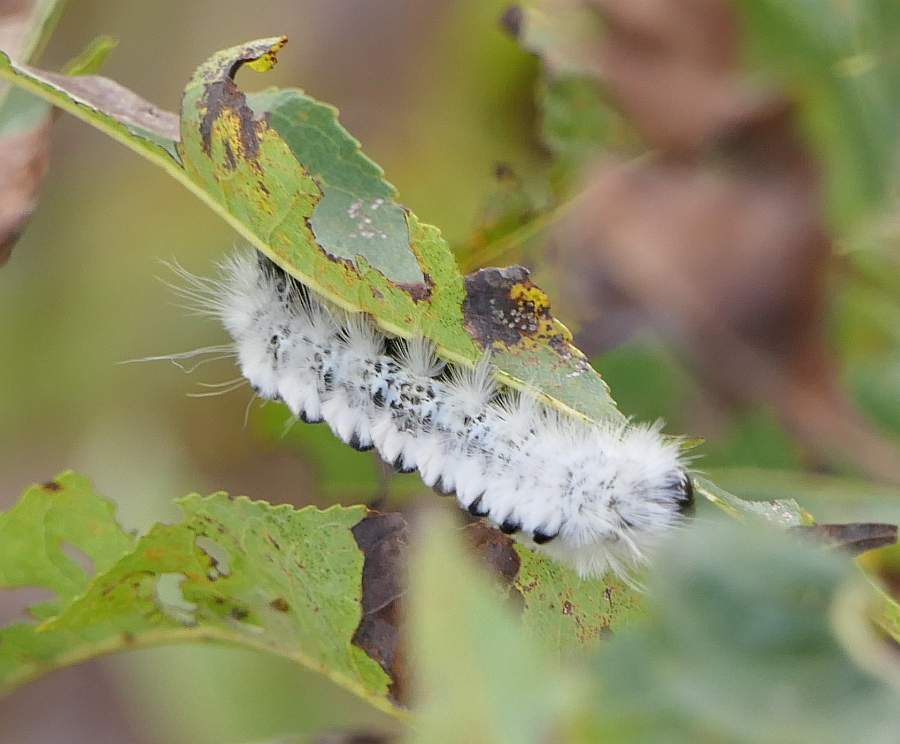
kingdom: Animalia
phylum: Arthropoda
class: Insecta
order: Lepidoptera
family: Erebidae
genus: Lophocampa
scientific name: Lophocampa caryae
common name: Hickory tussock moth
